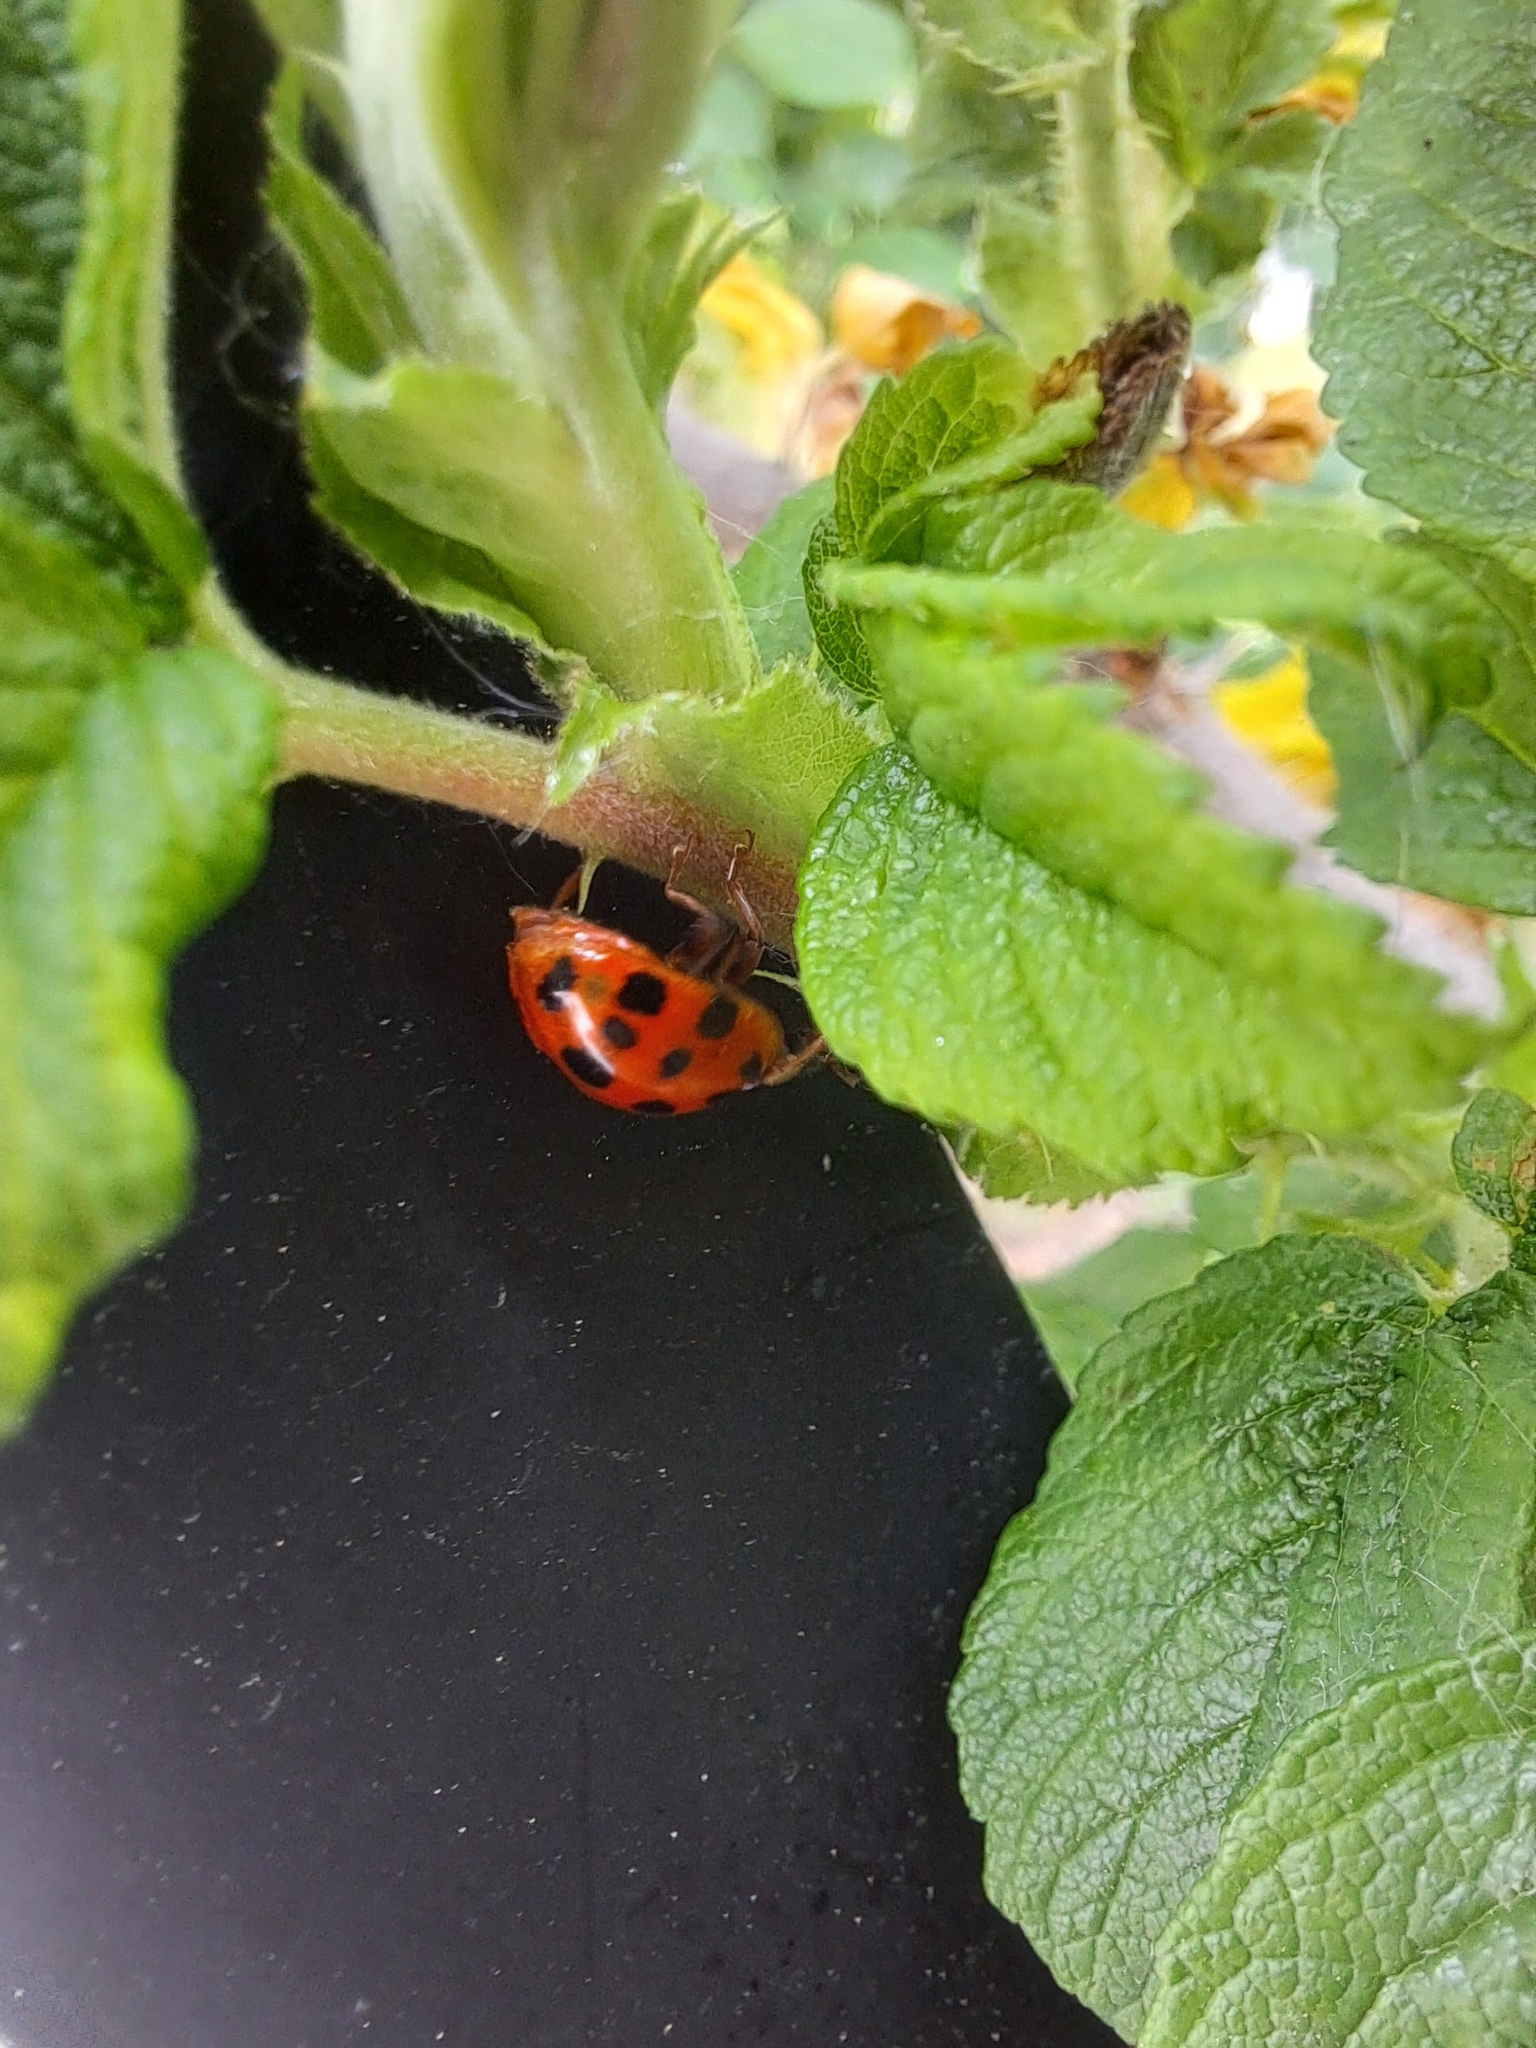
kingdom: Animalia
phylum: Arthropoda
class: Insecta
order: Coleoptera
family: Coccinellidae
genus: Harmonia
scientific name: Harmonia axyridis
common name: Harlequin ladybird
